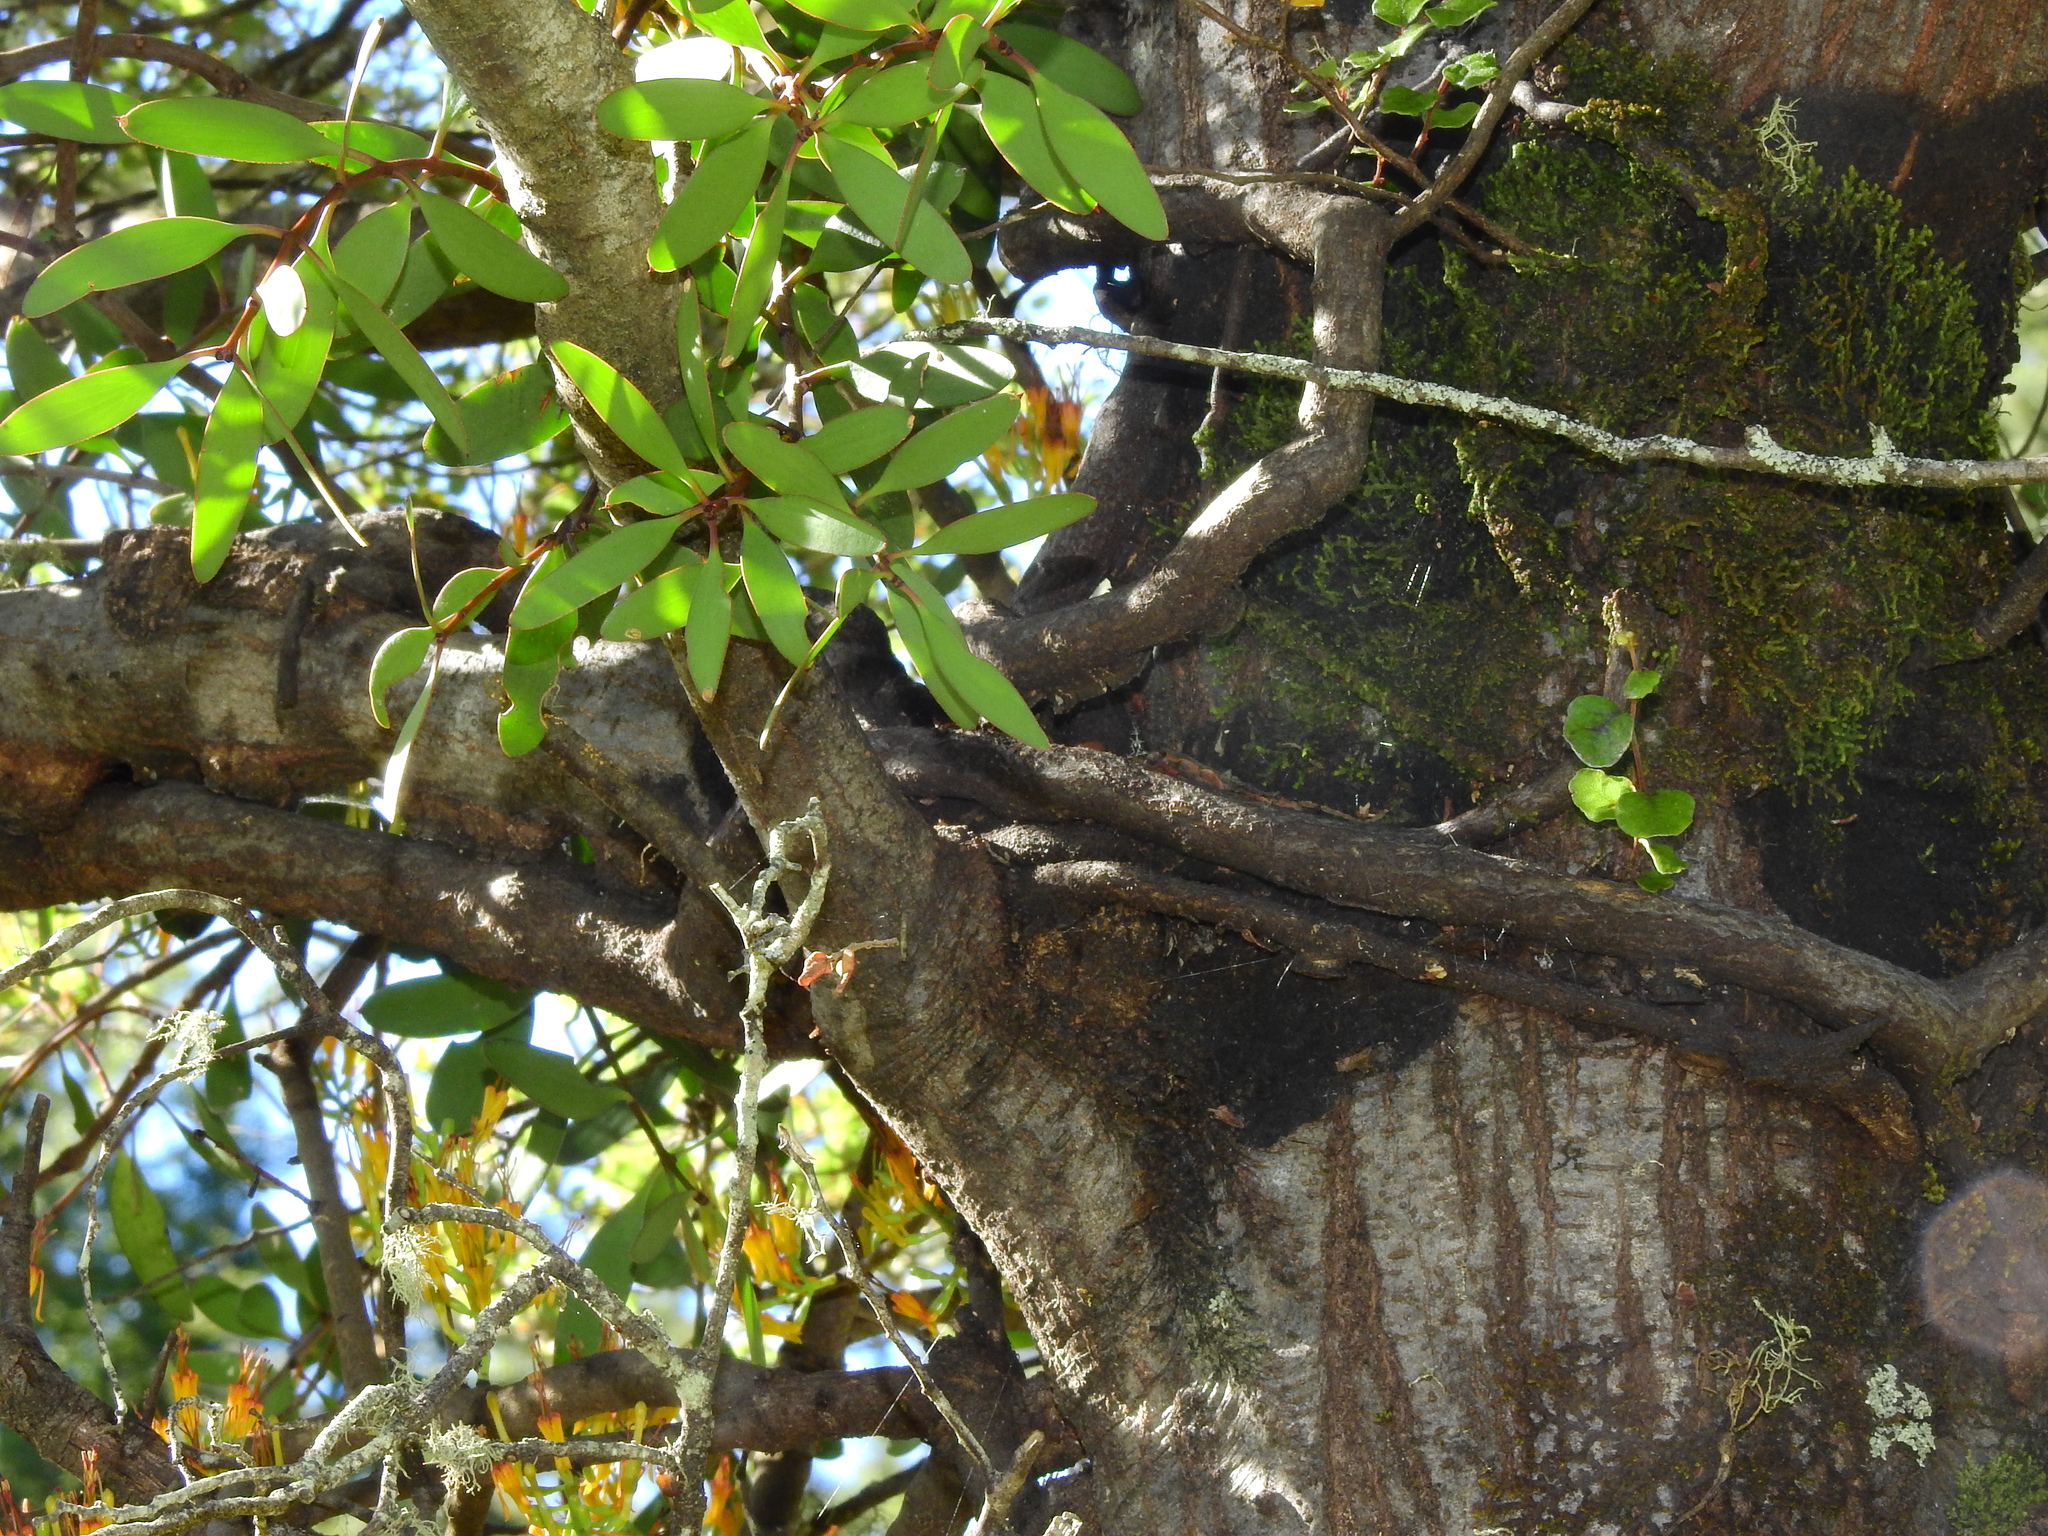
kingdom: Plantae
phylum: Tracheophyta
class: Magnoliopsida
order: Santalales
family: Loranthaceae
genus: Alepis
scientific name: Alepis flavida
